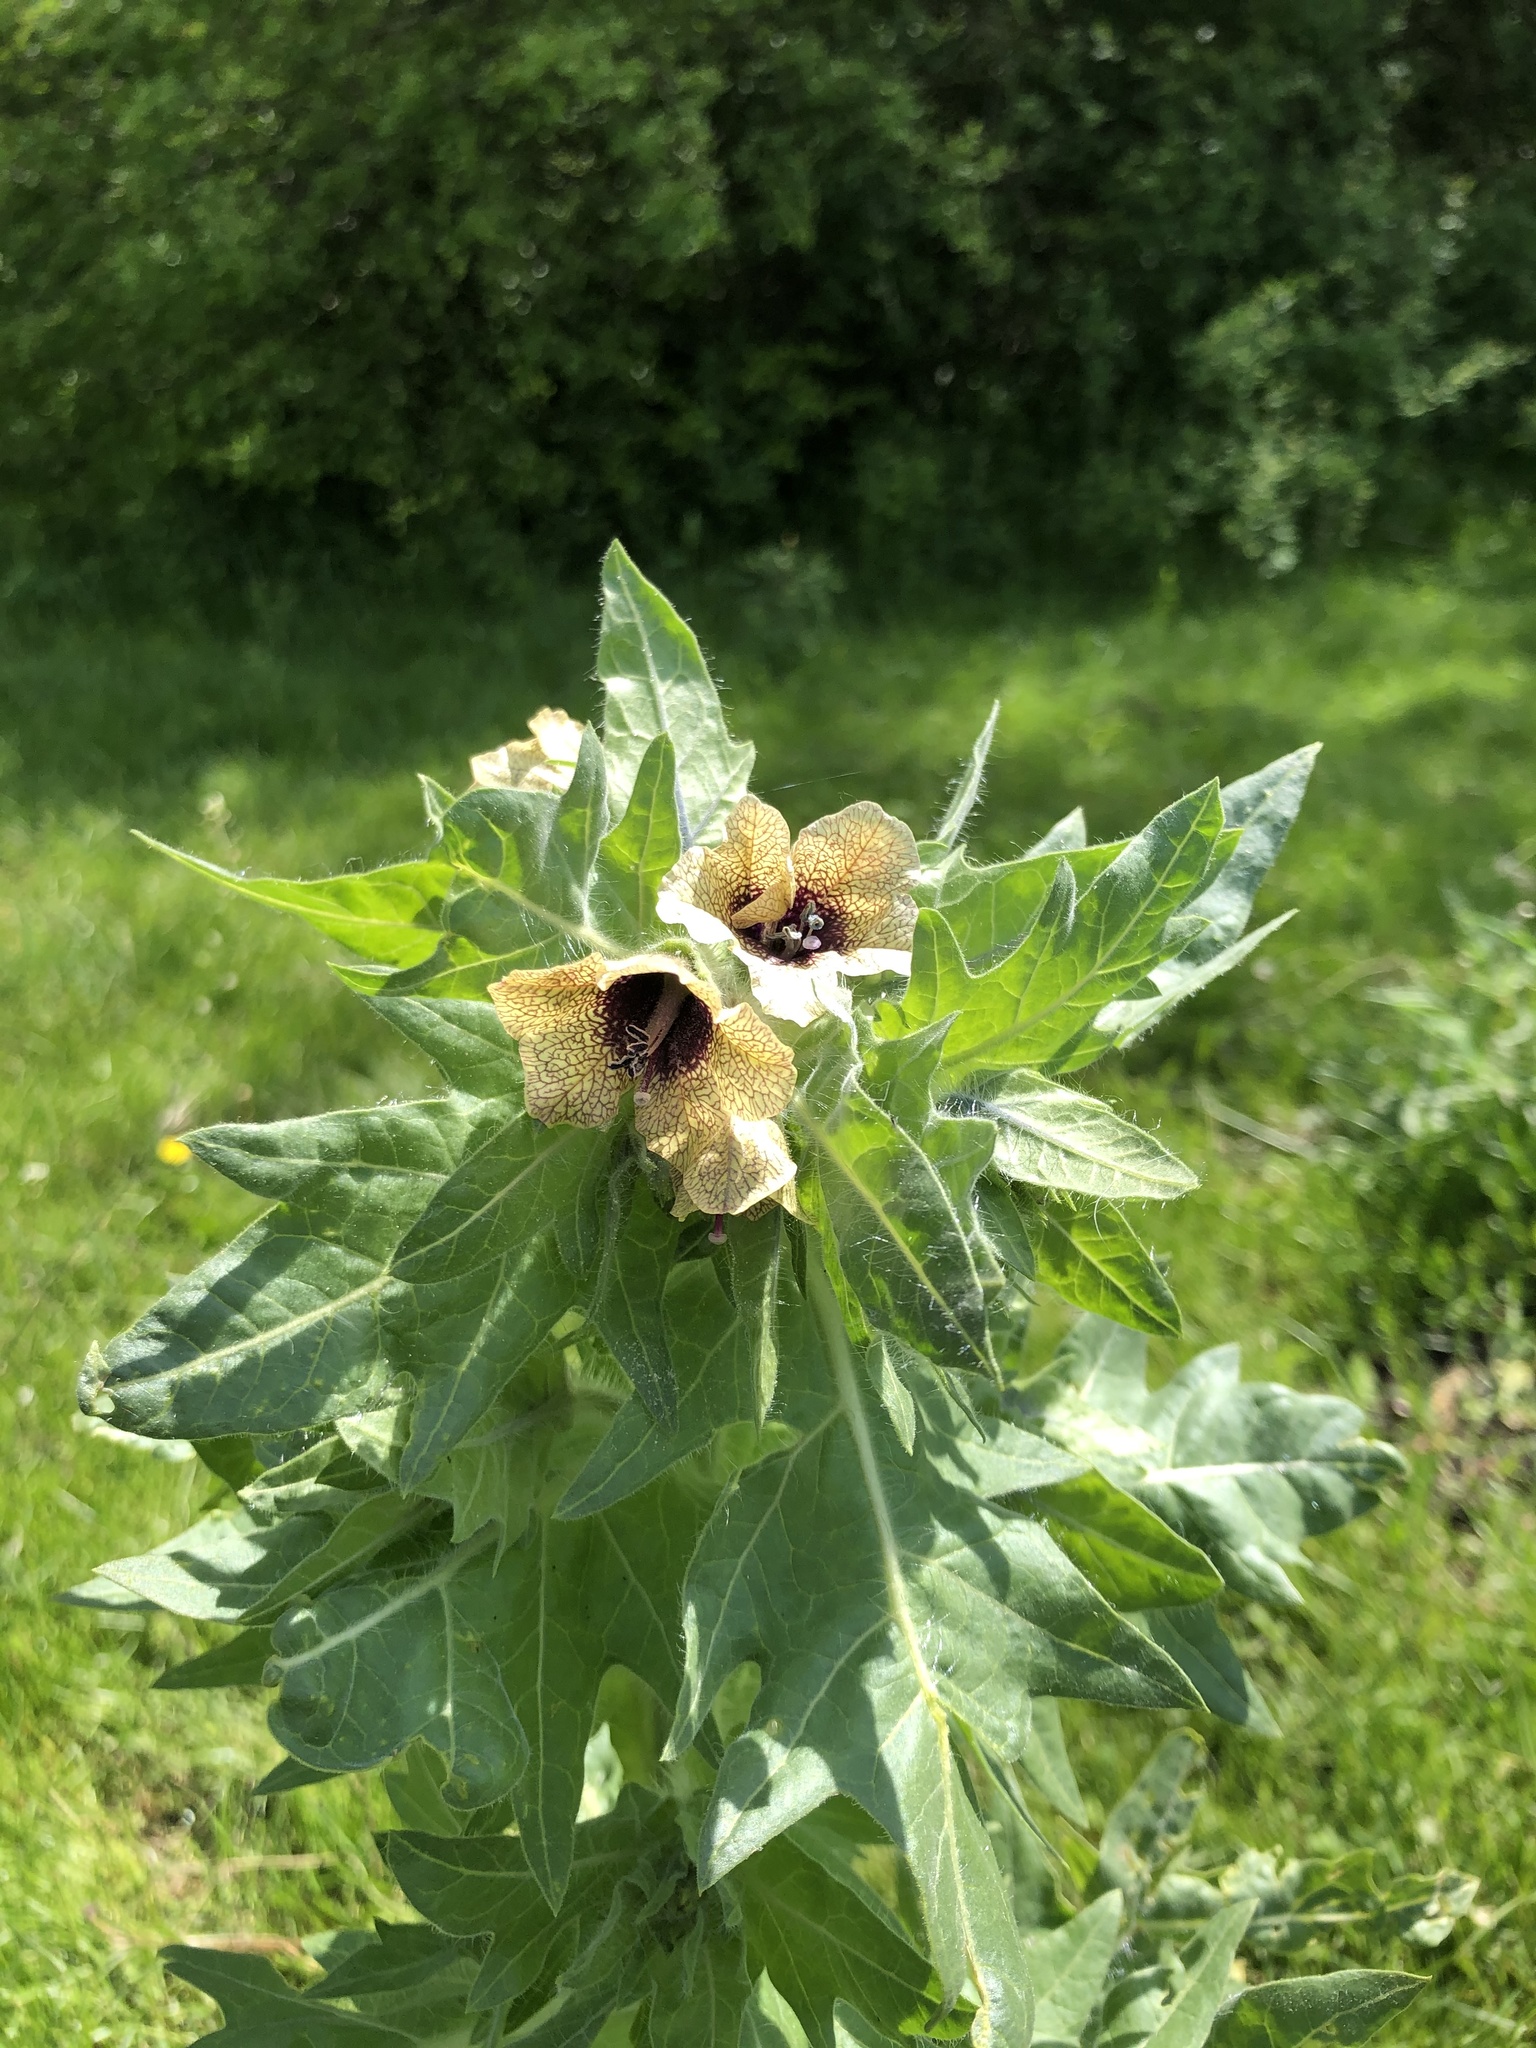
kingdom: Plantae
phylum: Tracheophyta
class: Magnoliopsida
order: Solanales
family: Solanaceae
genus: Hyoscyamus
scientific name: Hyoscyamus niger
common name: Henbane
